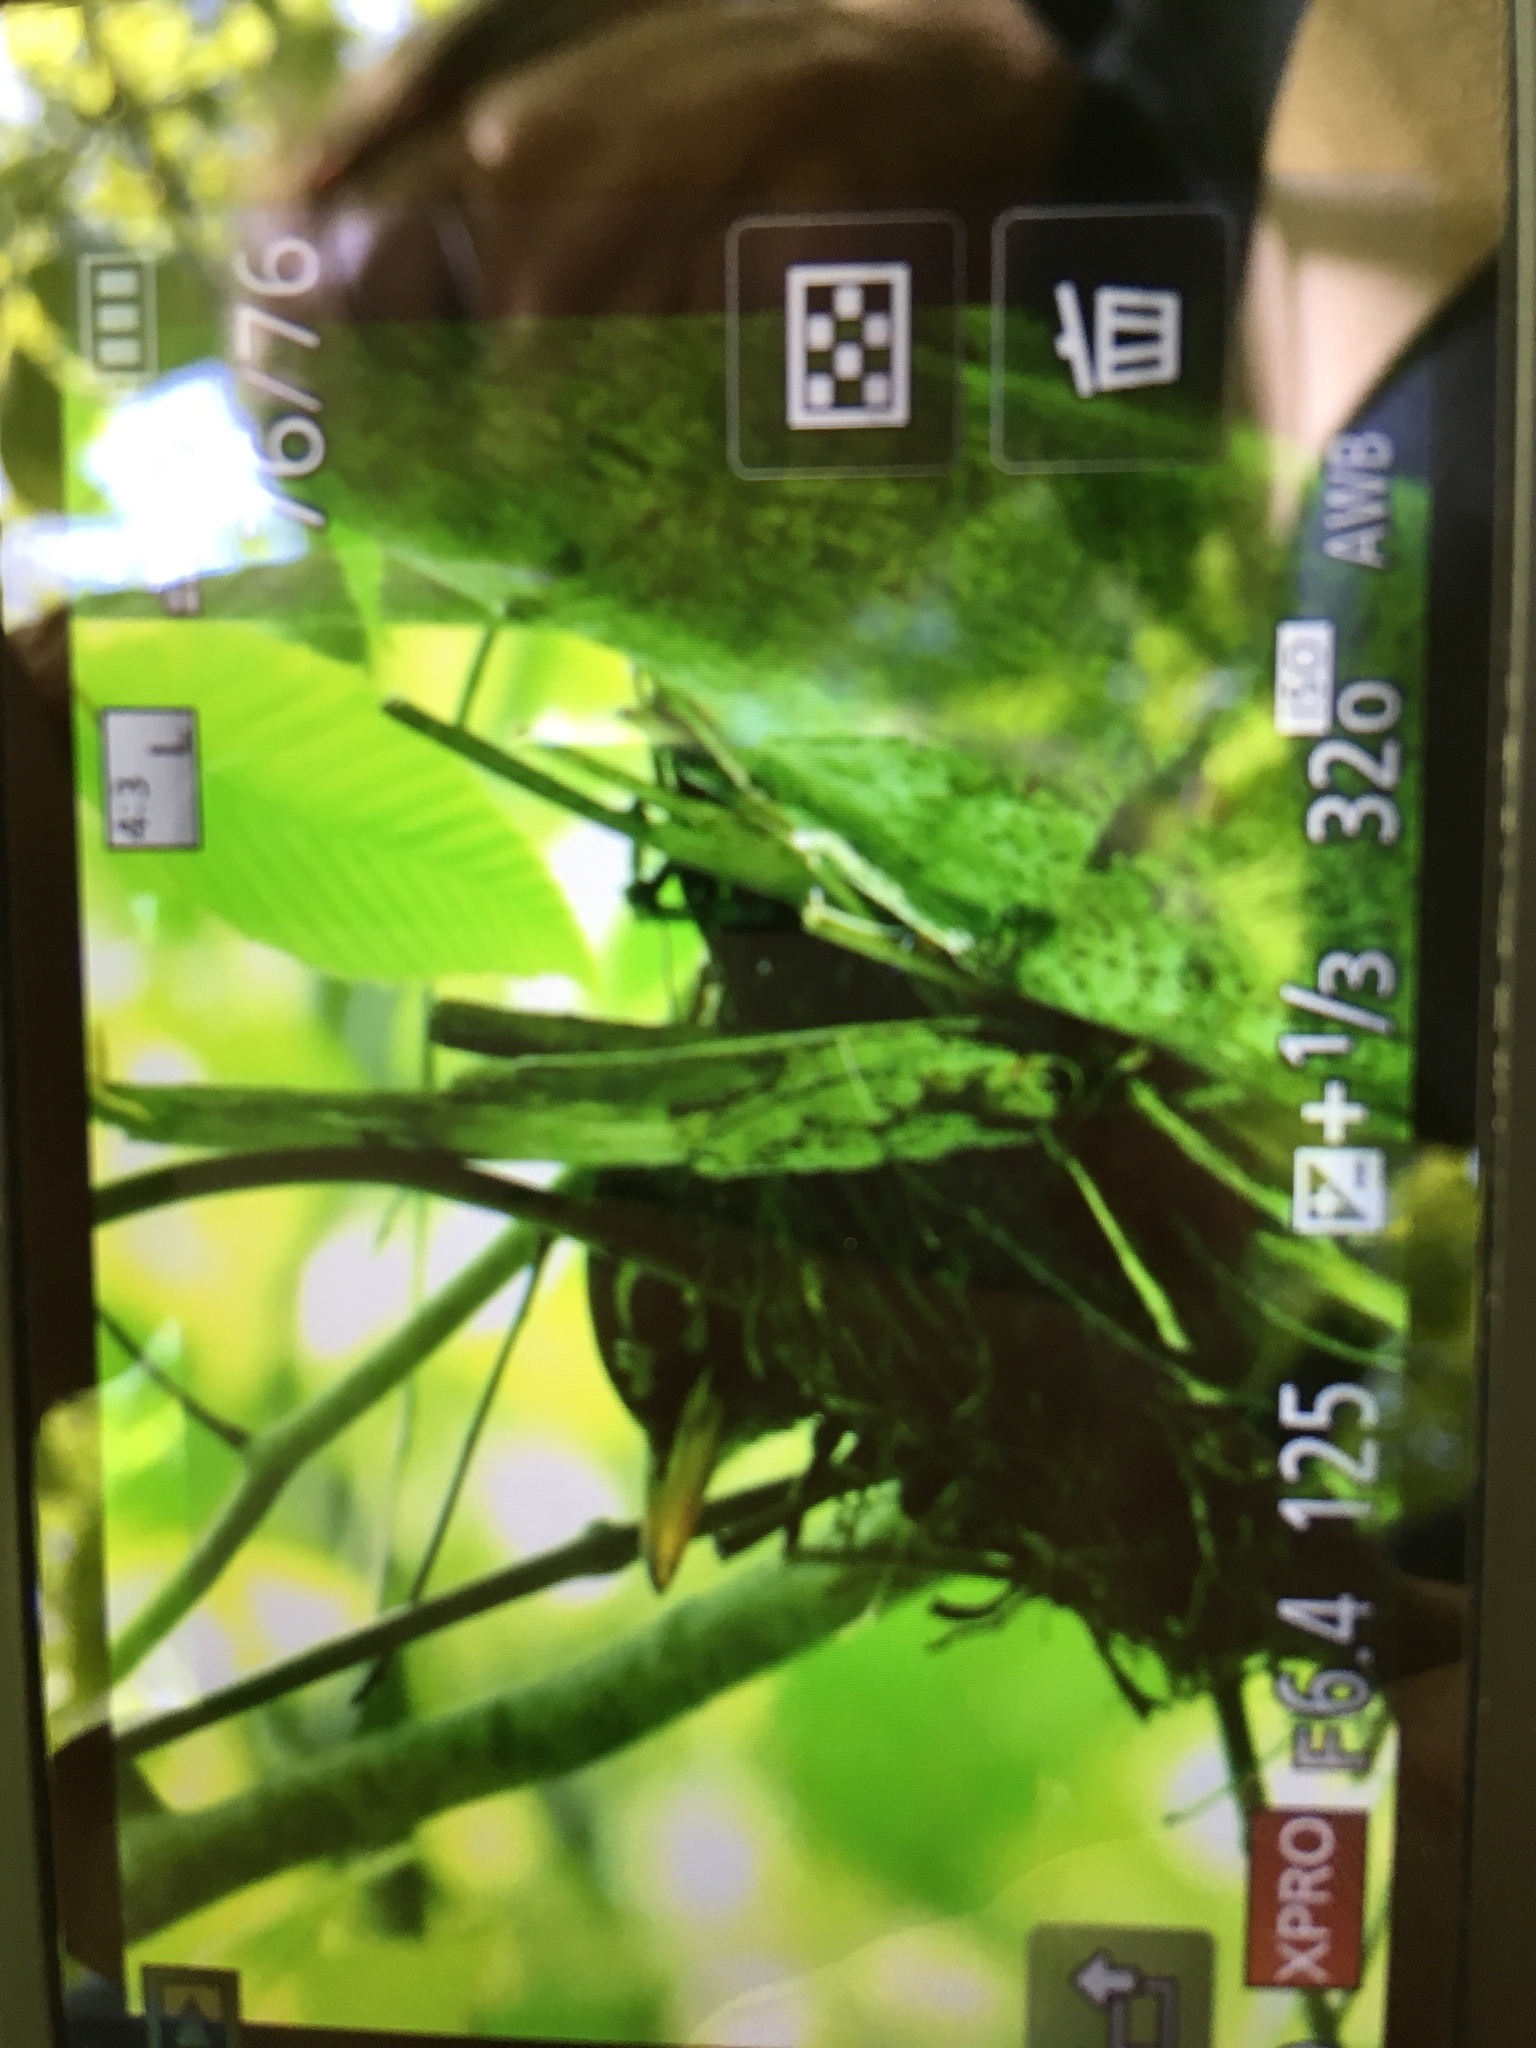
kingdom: Animalia
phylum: Chordata
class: Aves
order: Passeriformes
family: Turdidae
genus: Turdus
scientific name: Turdus migratorius
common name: American robin
